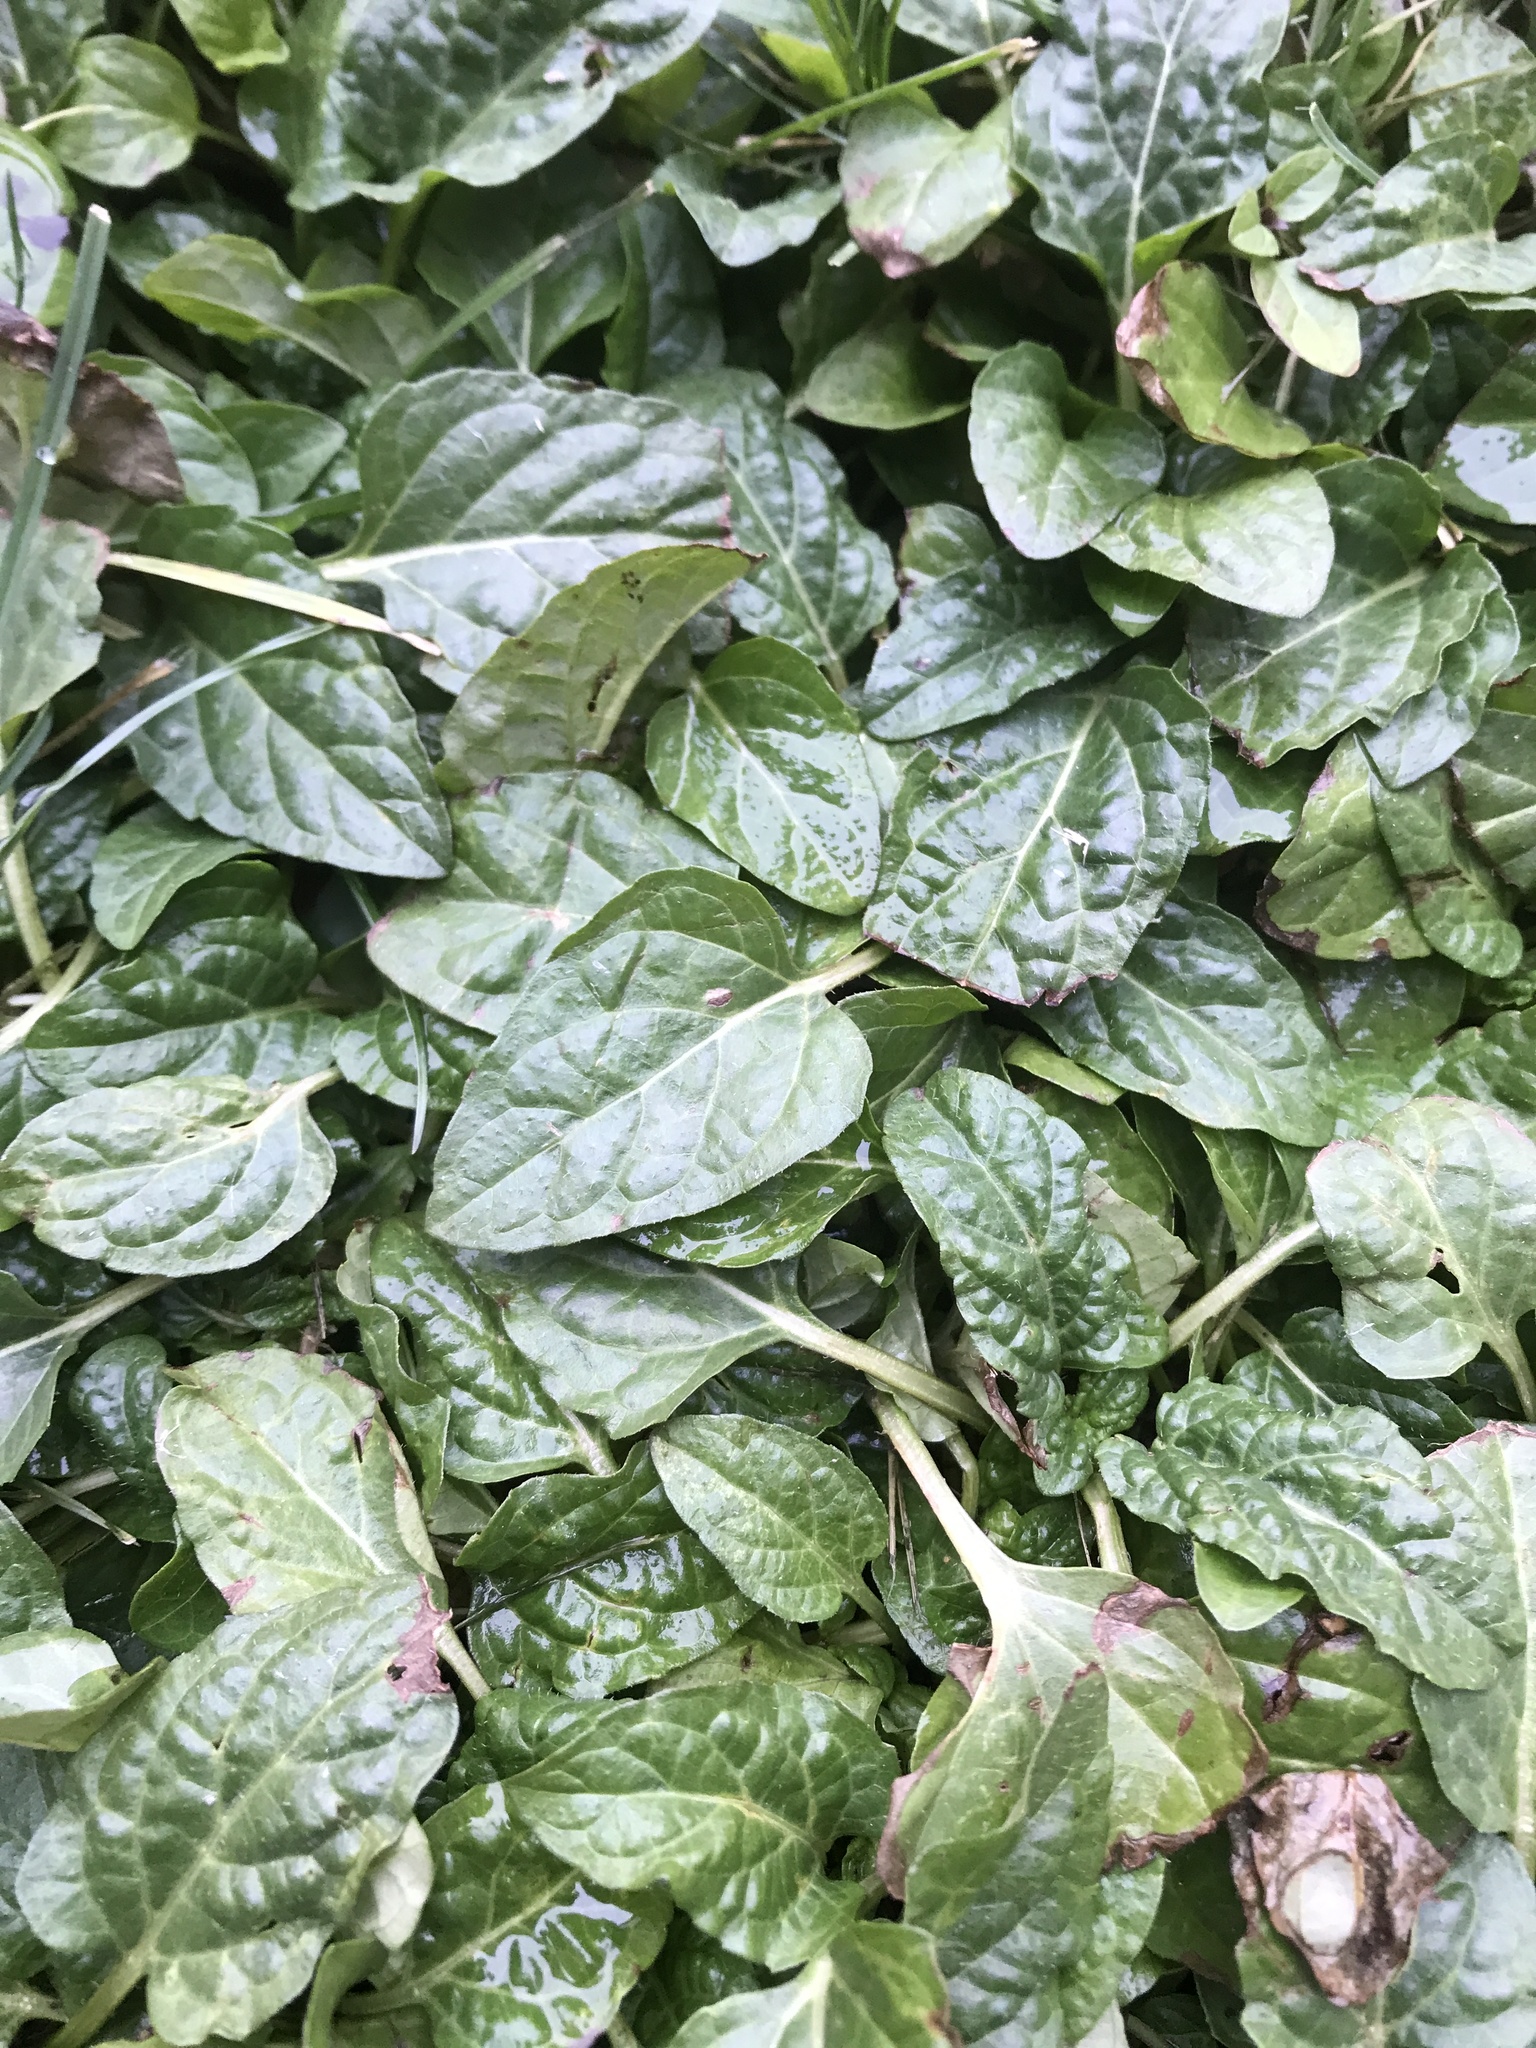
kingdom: Plantae
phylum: Tracheophyta
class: Magnoliopsida
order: Lamiales
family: Lamiaceae
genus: Prunella
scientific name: Prunella vulgaris
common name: Heal-all
